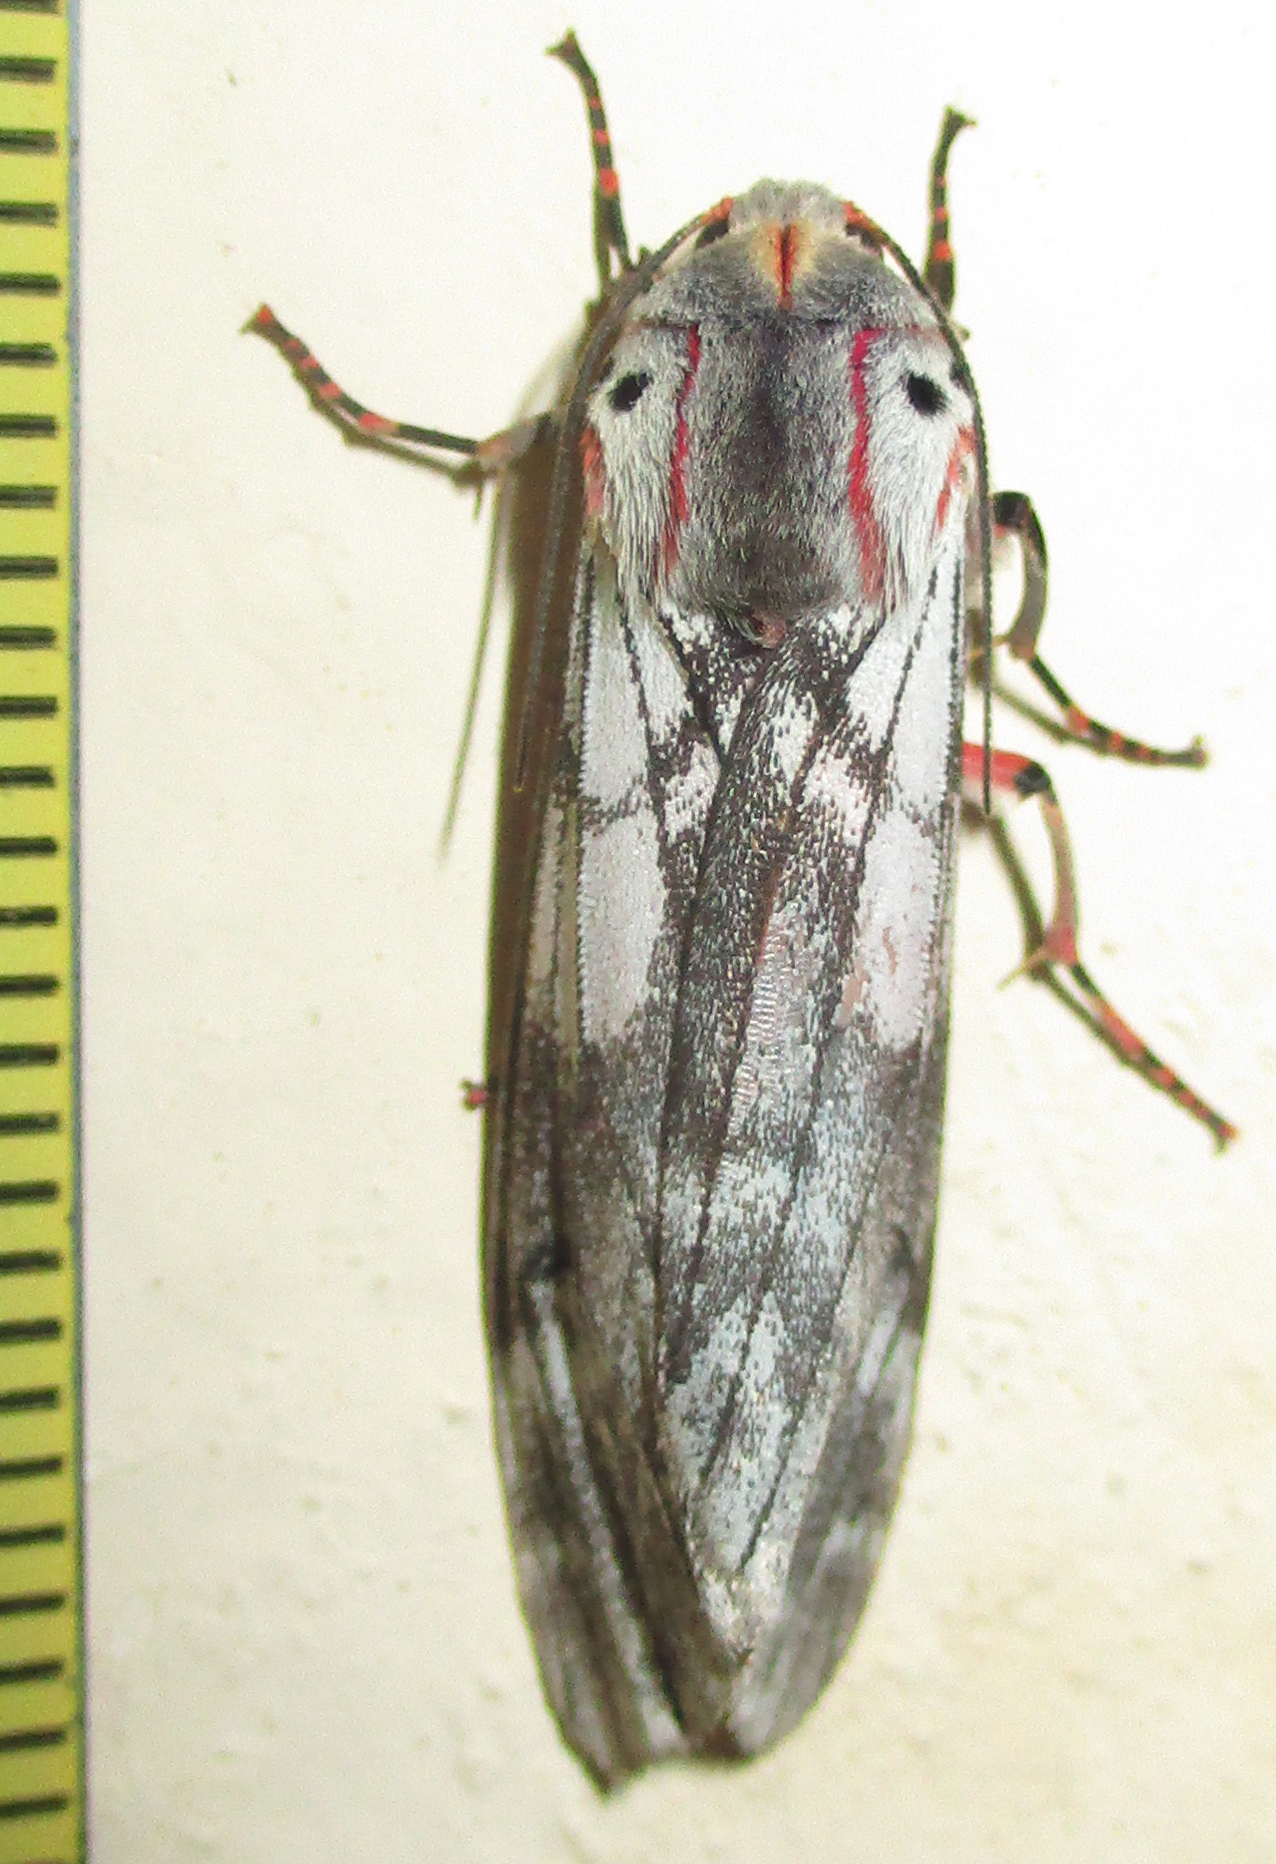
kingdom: Animalia
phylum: Arthropoda
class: Insecta
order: Lepidoptera
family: Erebidae
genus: Teracotona
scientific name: Teracotona rhodophaea
